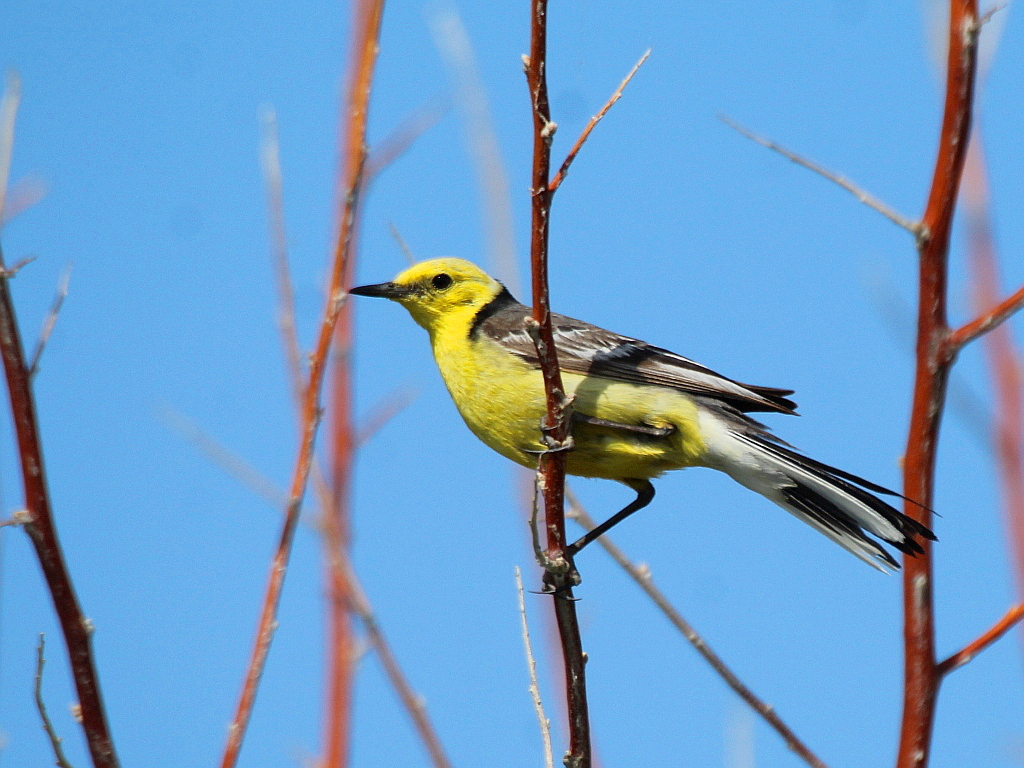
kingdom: Animalia
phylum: Chordata
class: Aves
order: Passeriformes
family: Motacillidae
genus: Motacilla
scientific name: Motacilla citreola
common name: Citrine wagtail
